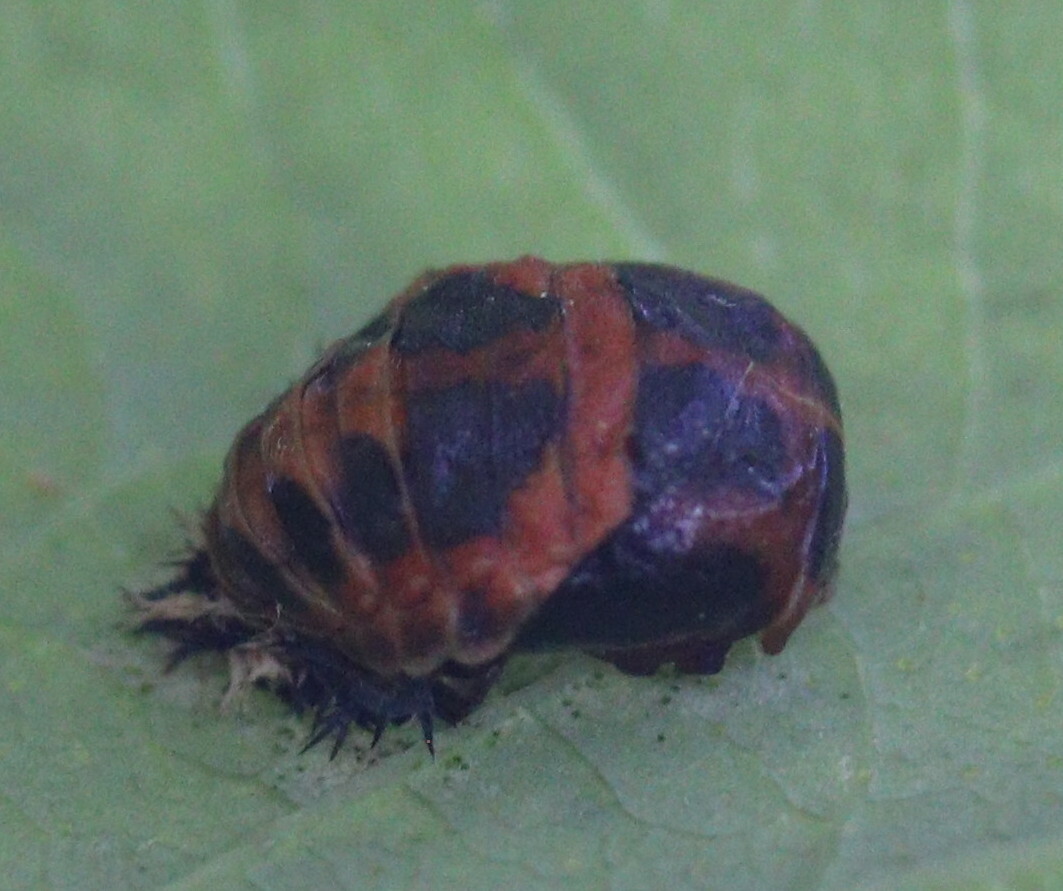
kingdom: Animalia
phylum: Arthropoda
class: Insecta
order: Coleoptera
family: Coccinellidae
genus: Harmonia
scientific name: Harmonia axyridis
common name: Harlequin ladybird
